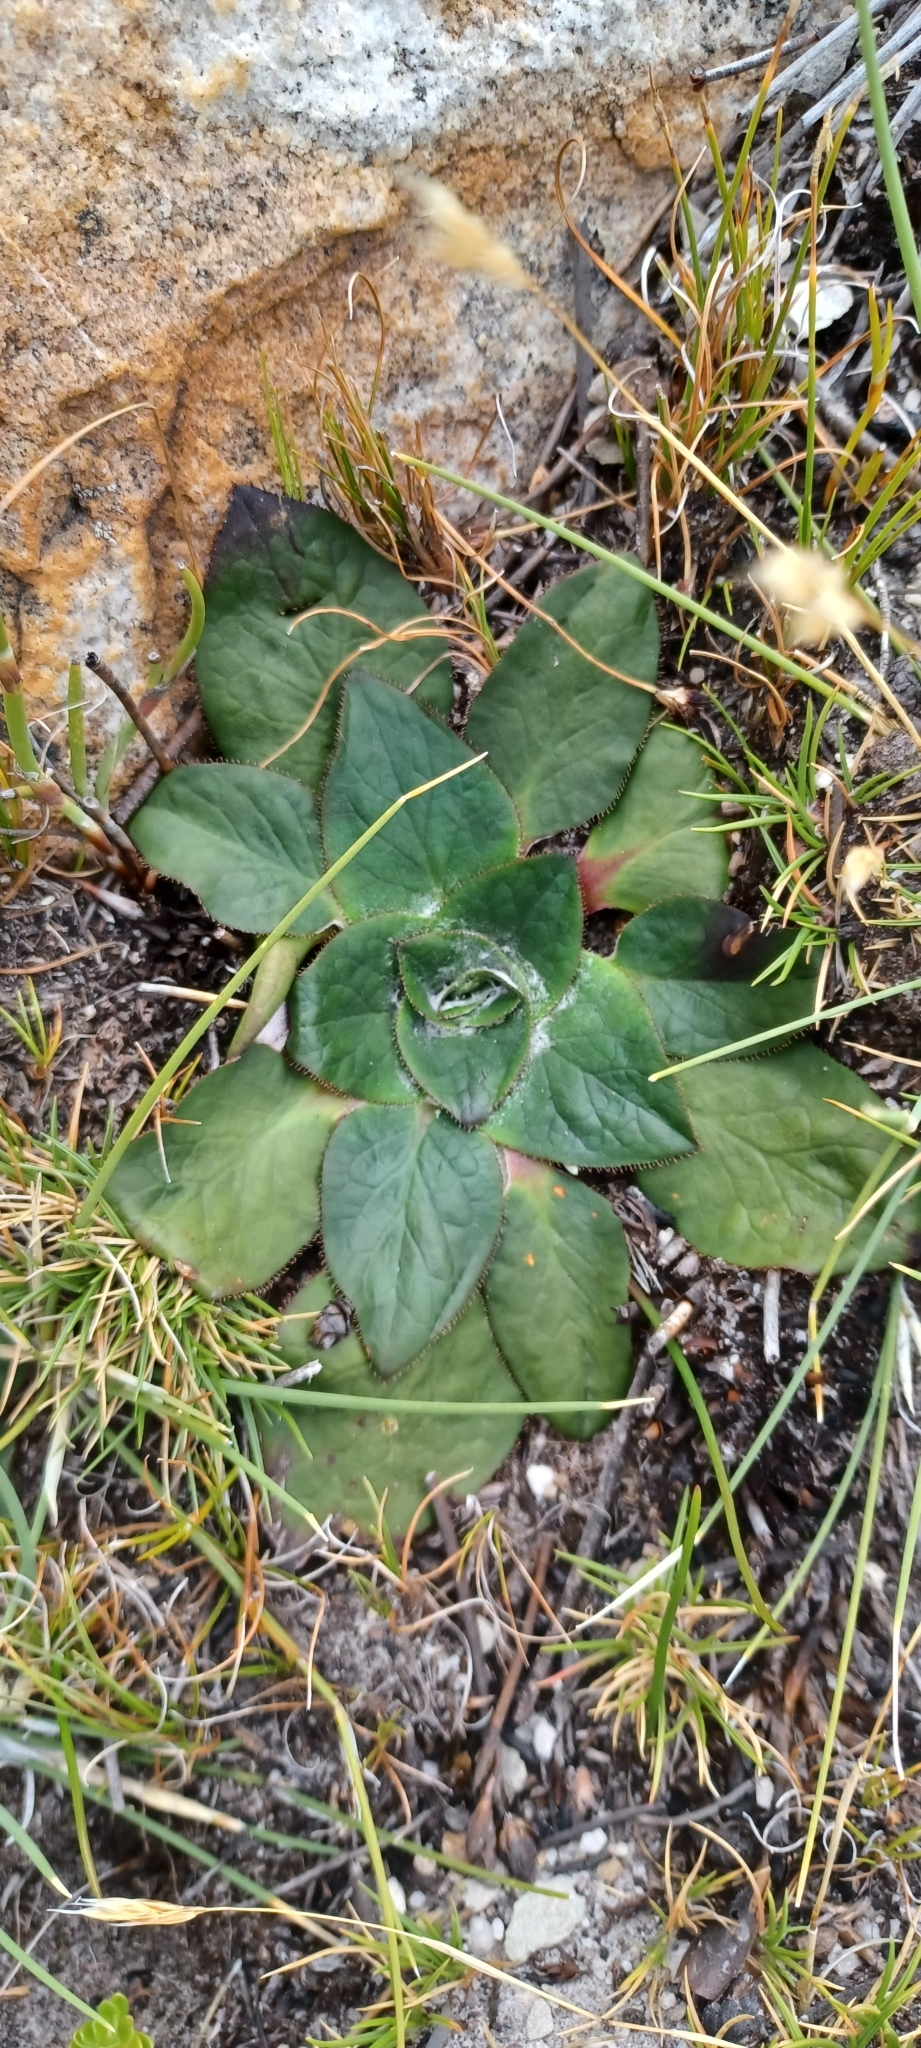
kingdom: Plantae
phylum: Tracheophyta
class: Magnoliopsida
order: Apiales
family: Apiaceae
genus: Hermas
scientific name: Hermas ciliata
